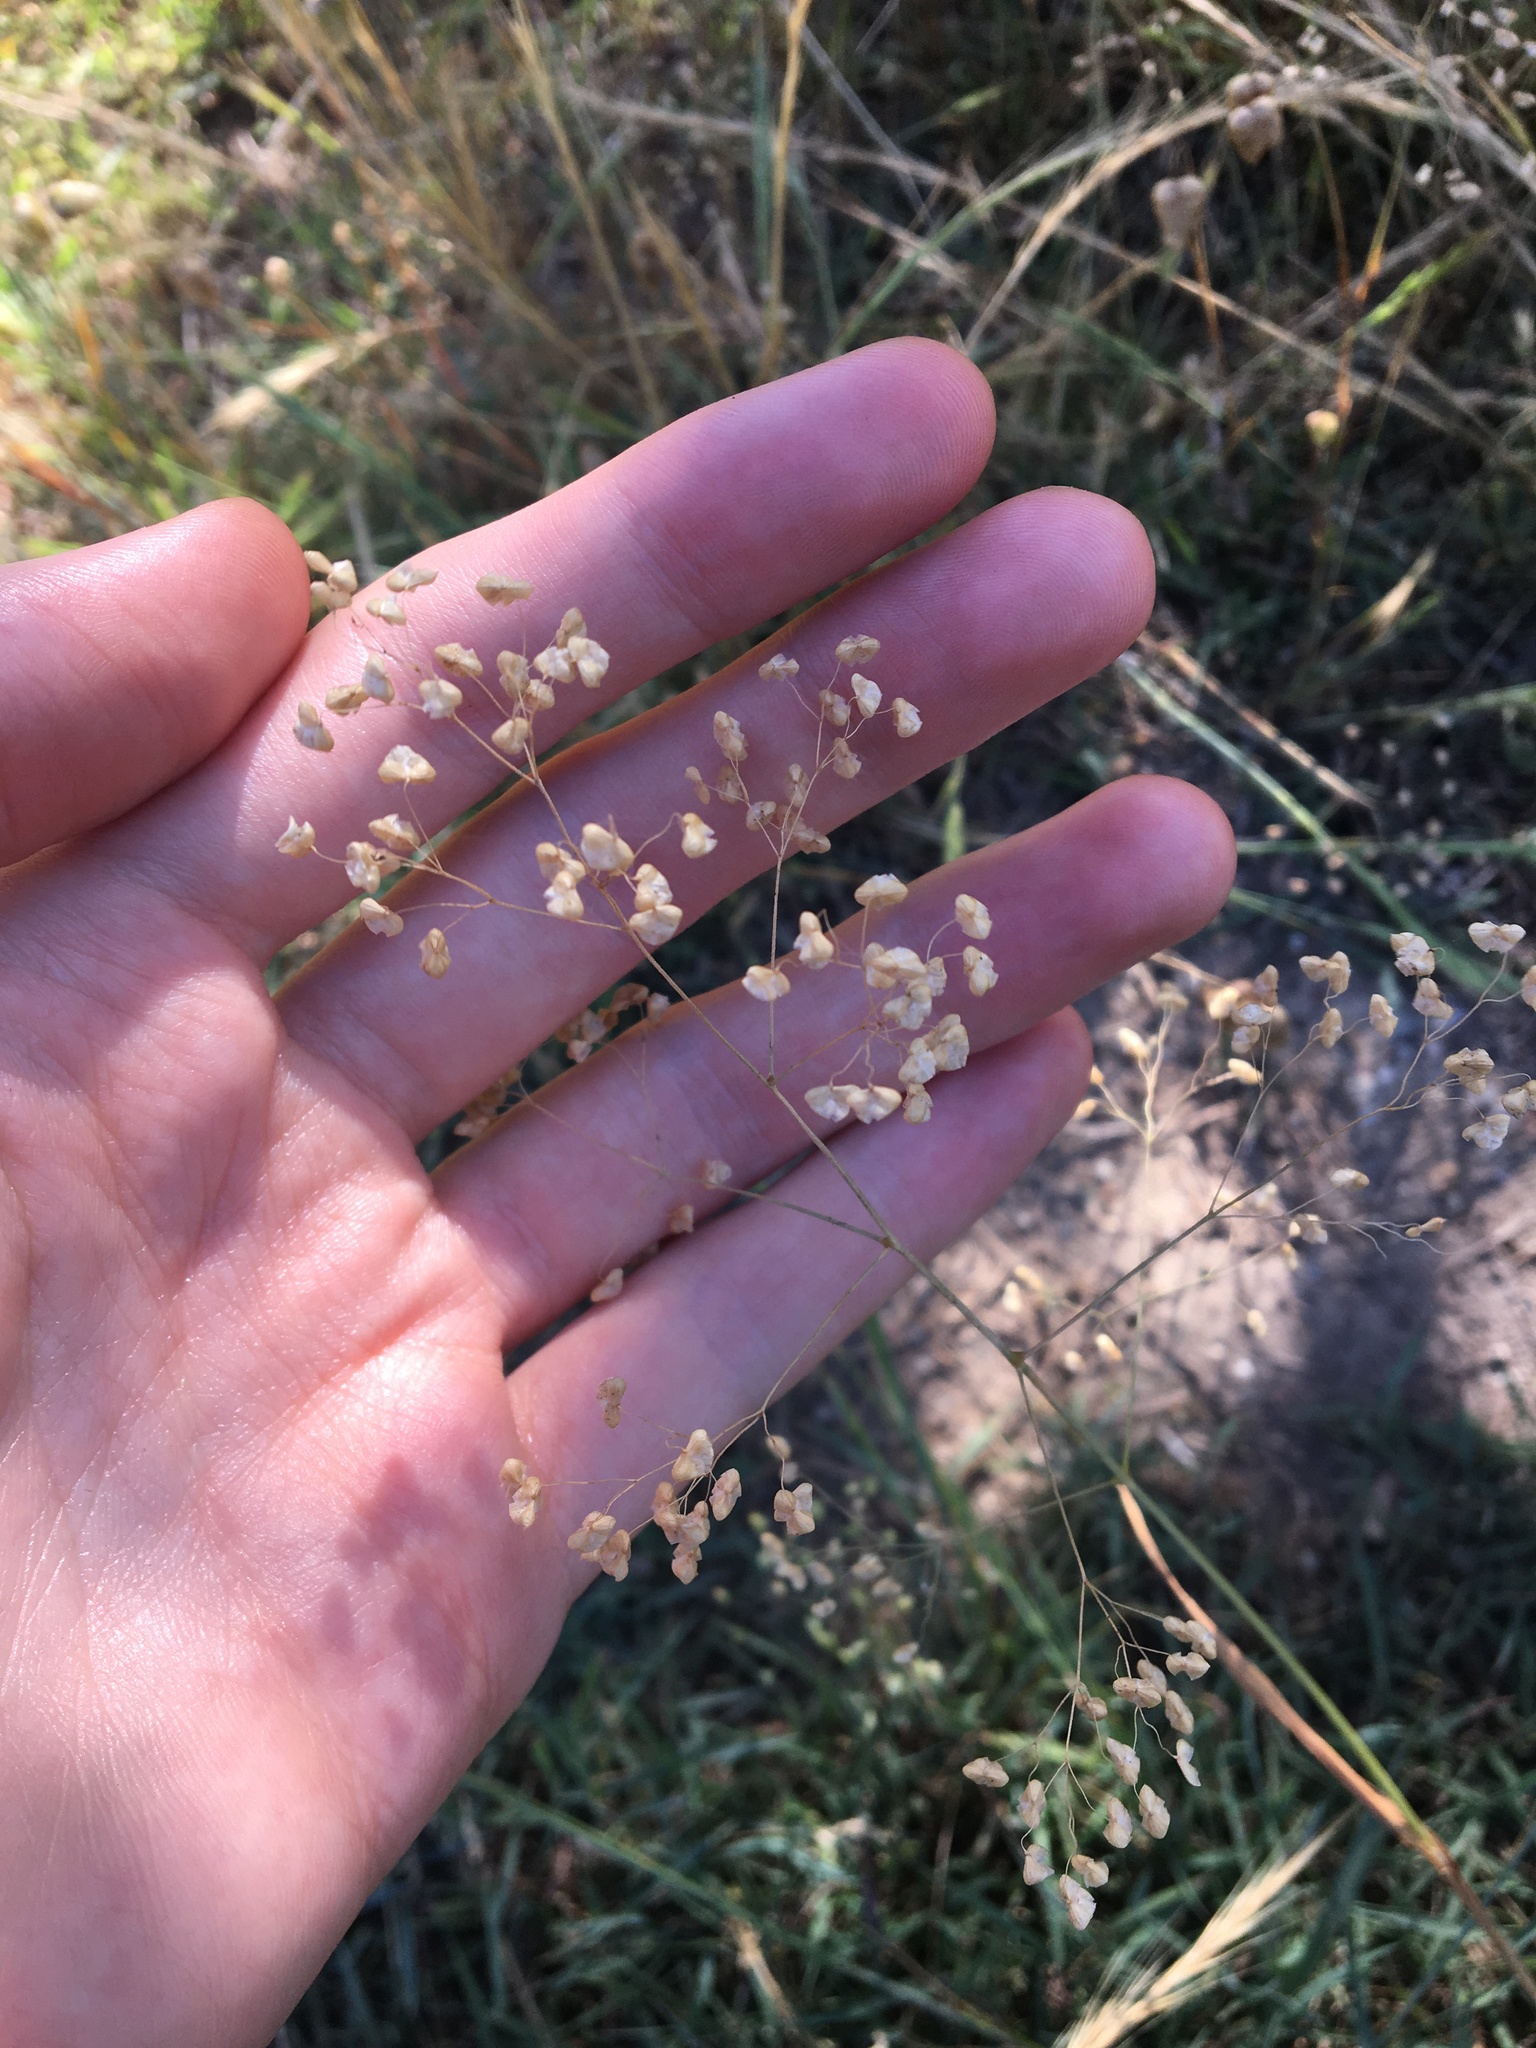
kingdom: Plantae
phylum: Tracheophyta
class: Liliopsida
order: Poales
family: Poaceae
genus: Briza
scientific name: Briza minor
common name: Lesser quaking-grass
